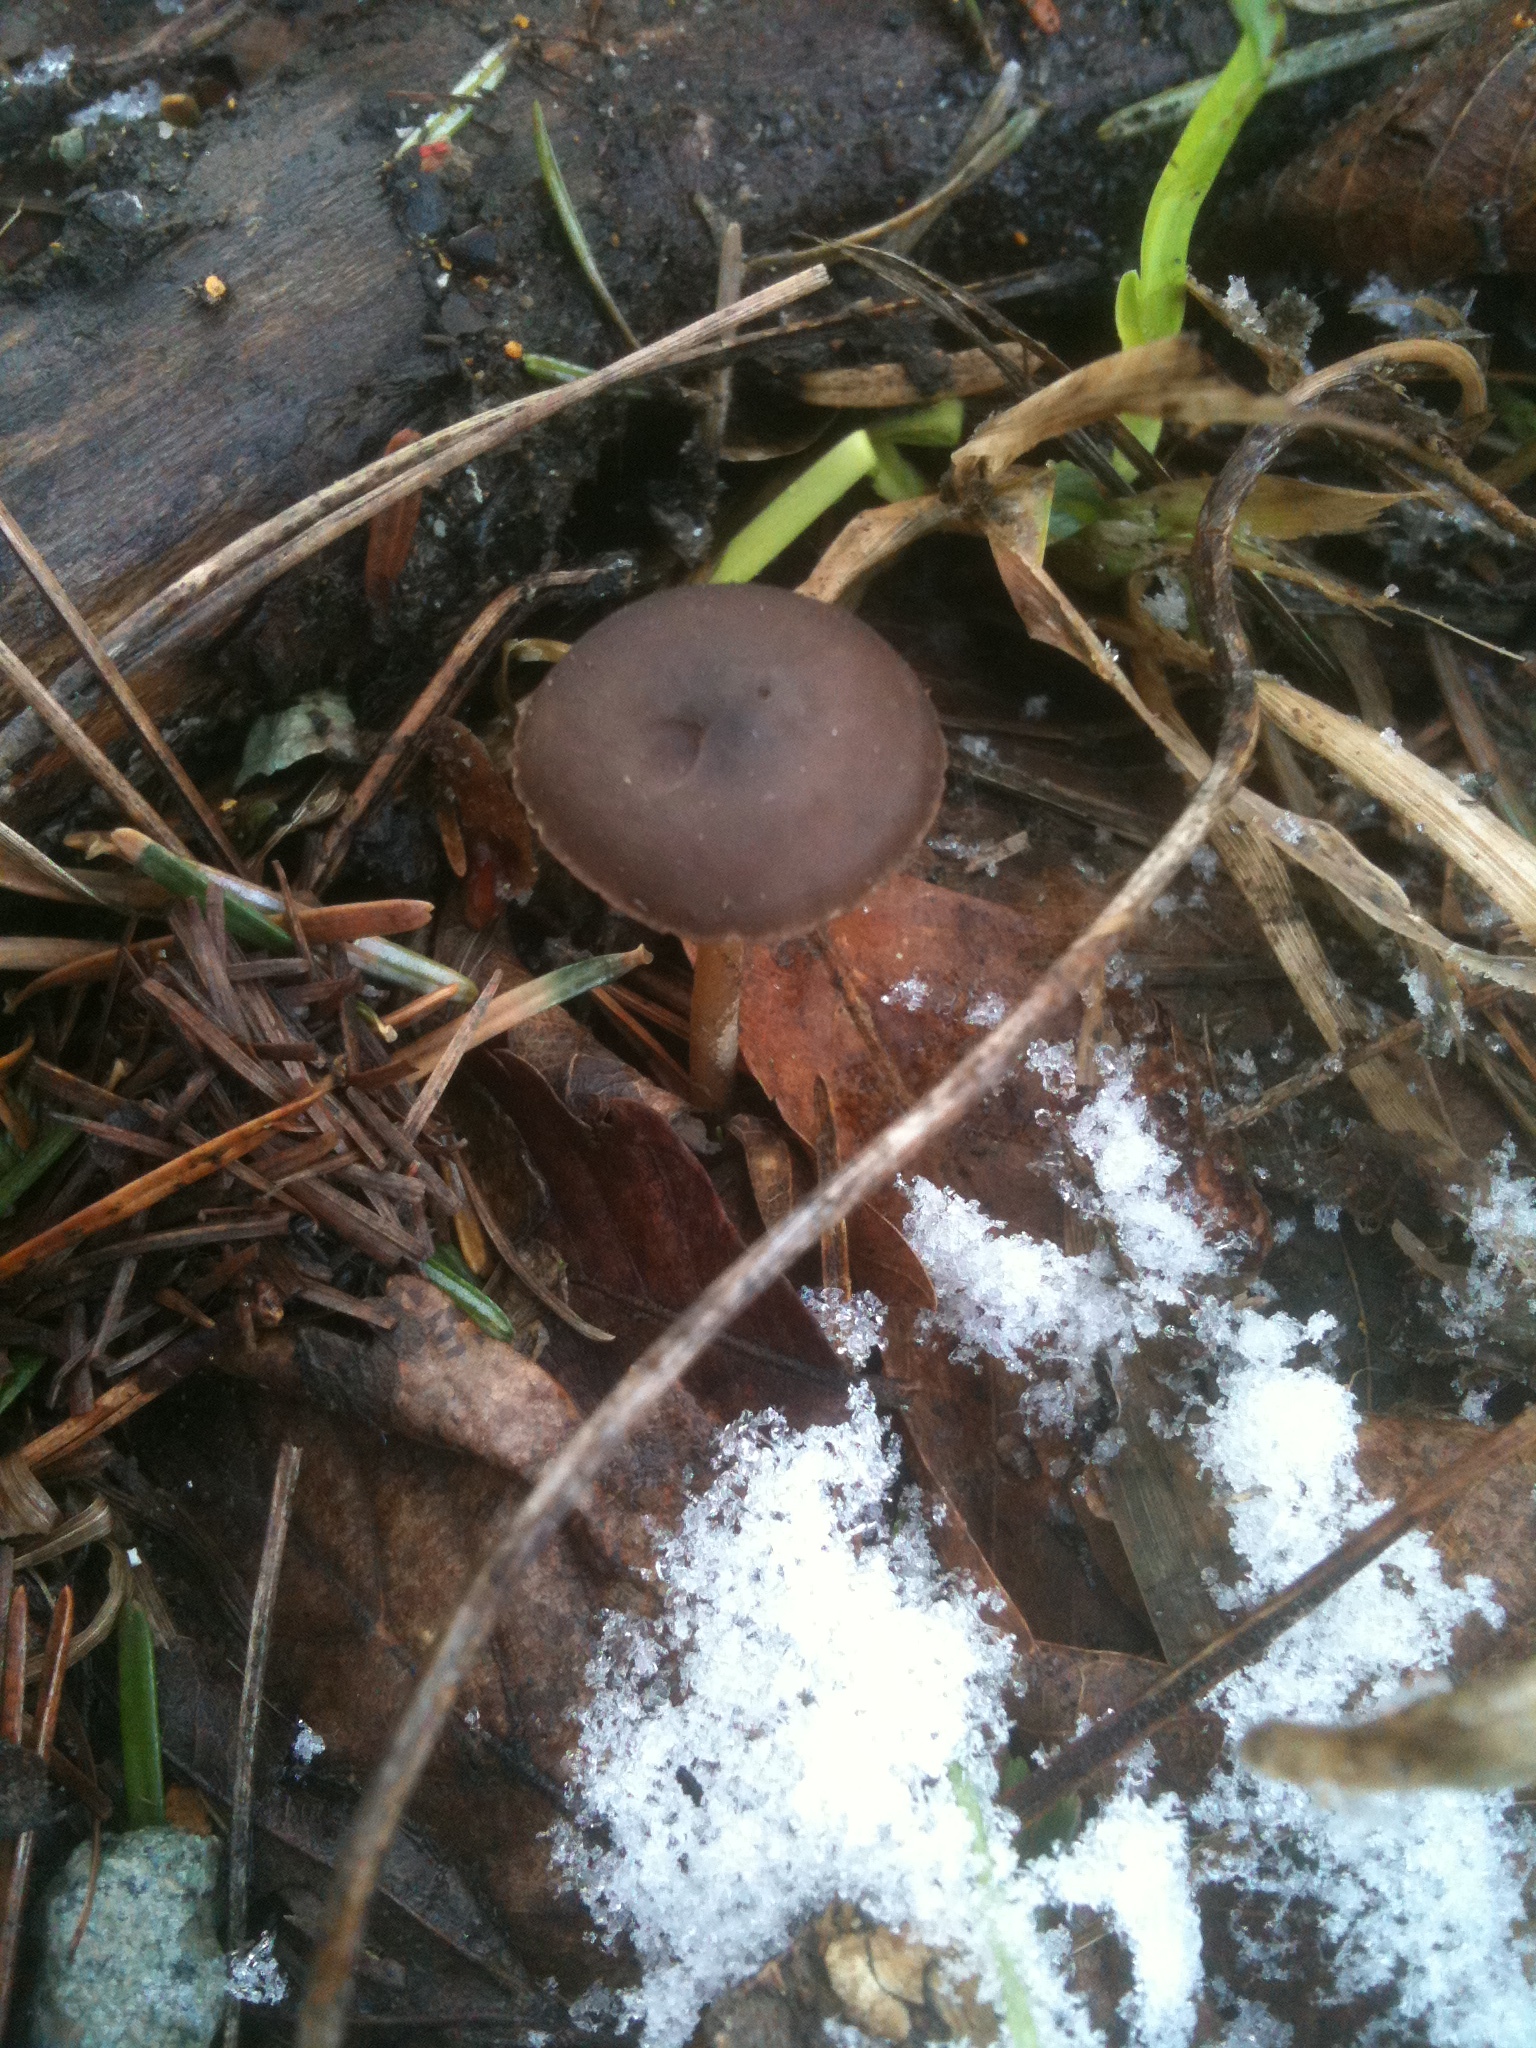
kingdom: Fungi
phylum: Basidiomycota
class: Agaricomycetes
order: Agaricales
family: Physalacriaceae
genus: Strobilurus
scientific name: Strobilurus stephanocystis
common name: Russian conecap
